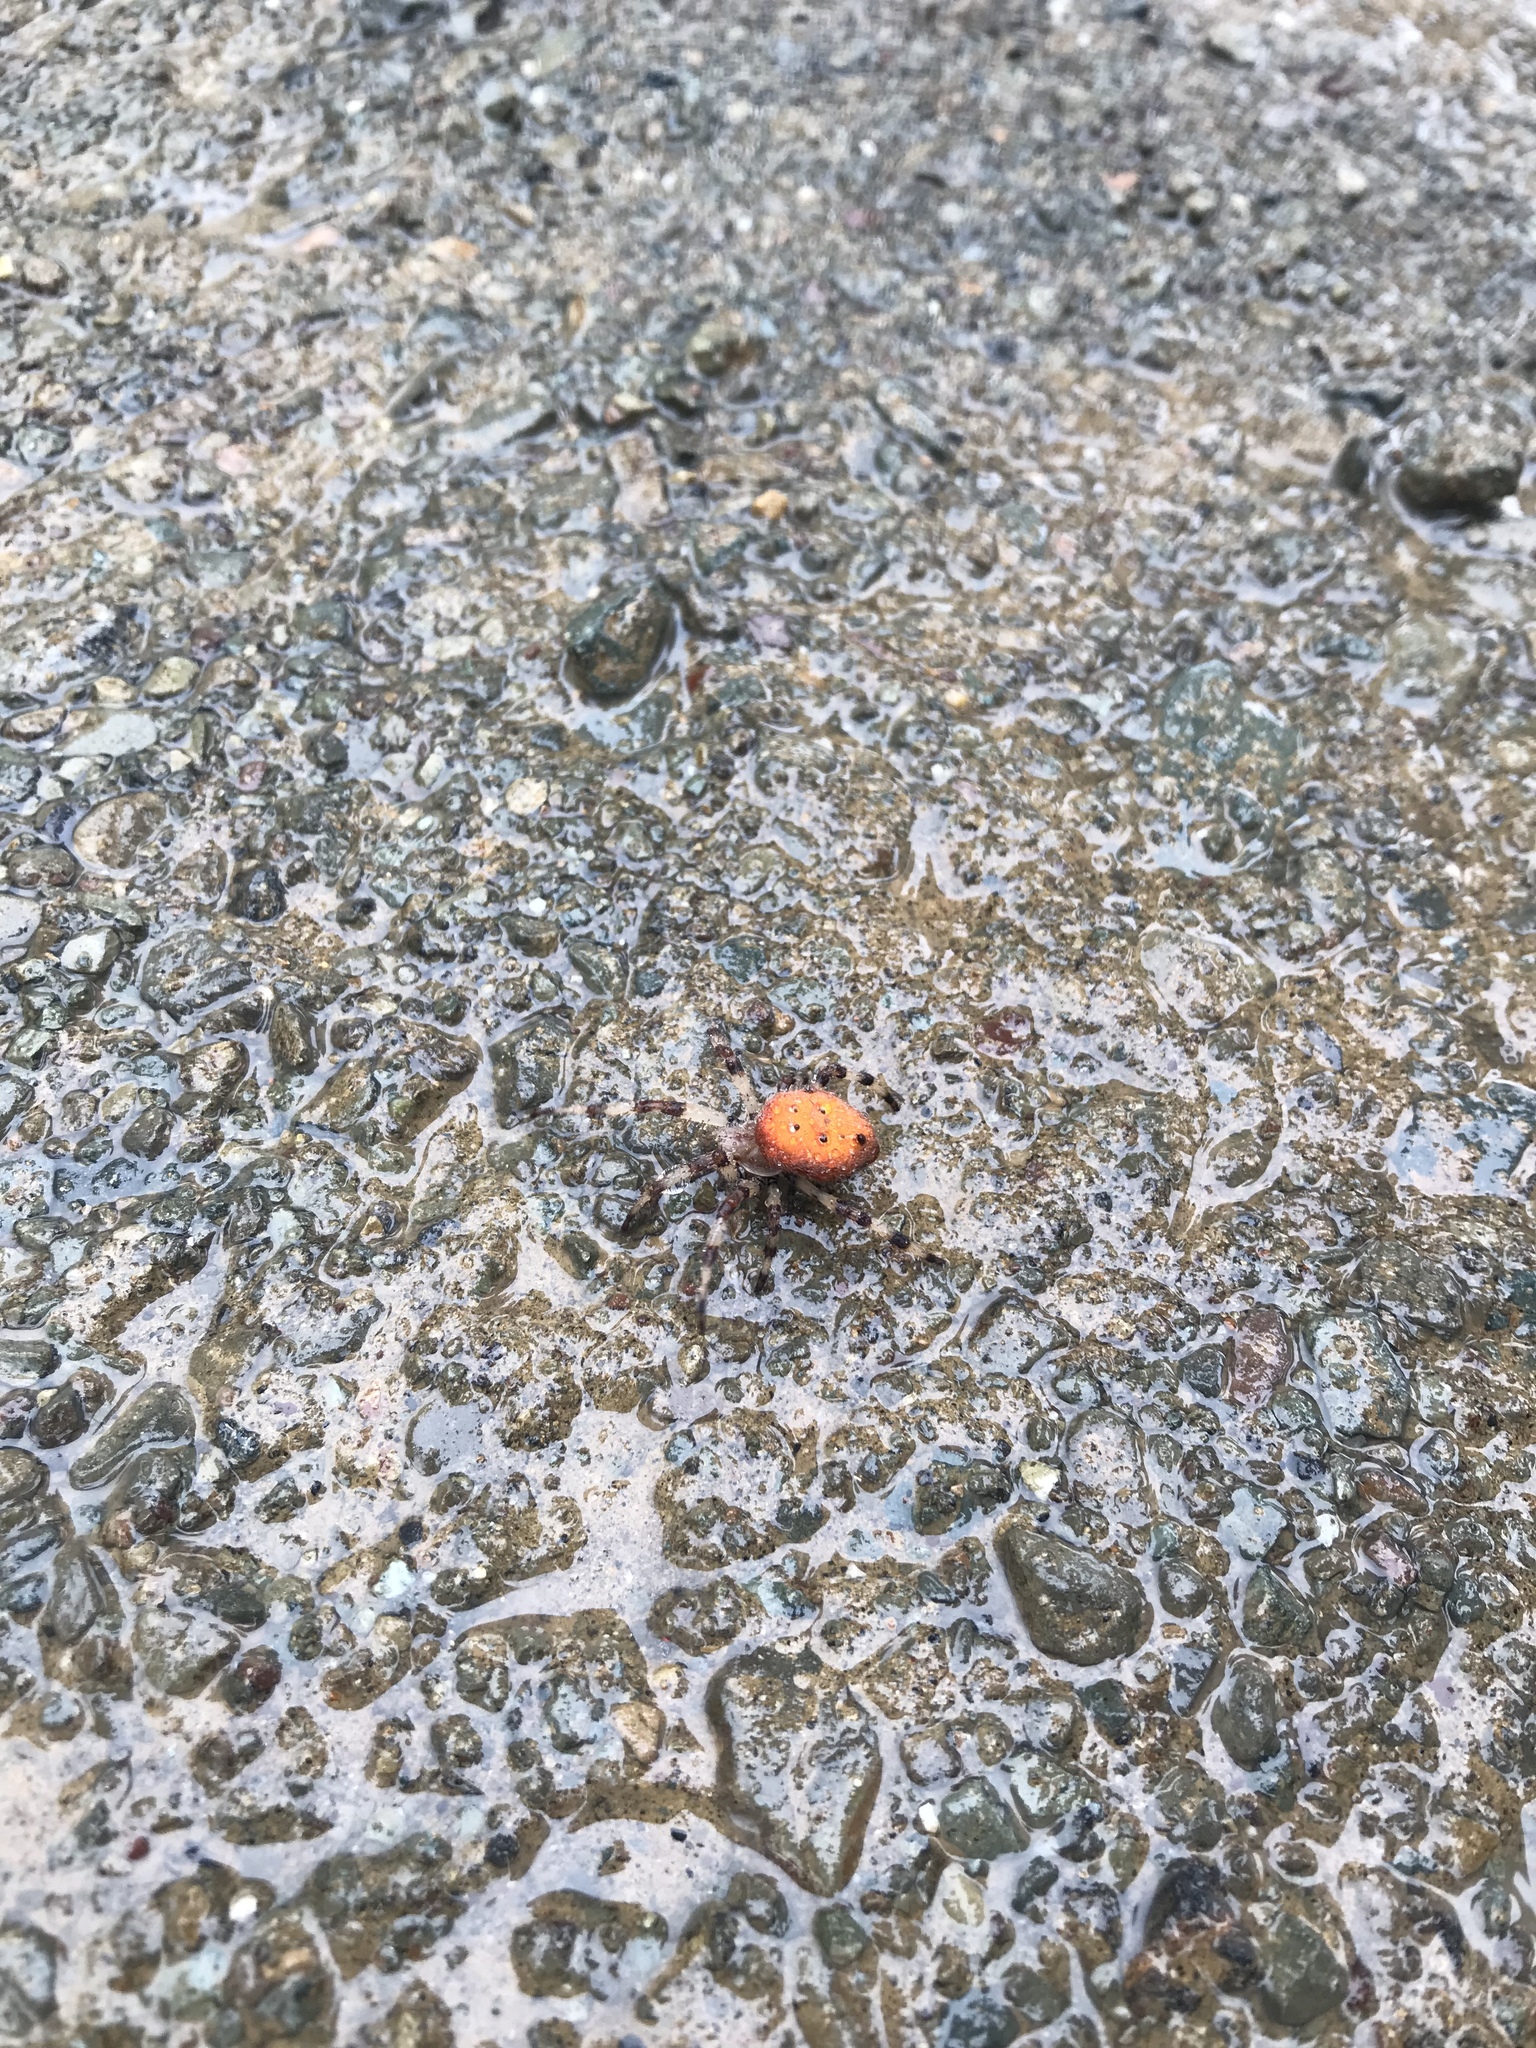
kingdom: Animalia
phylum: Arthropoda
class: Arachnida
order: Araneae
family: Araneidae
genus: Araneus
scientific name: Araneus trifolium
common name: Shamrock orbweaver
